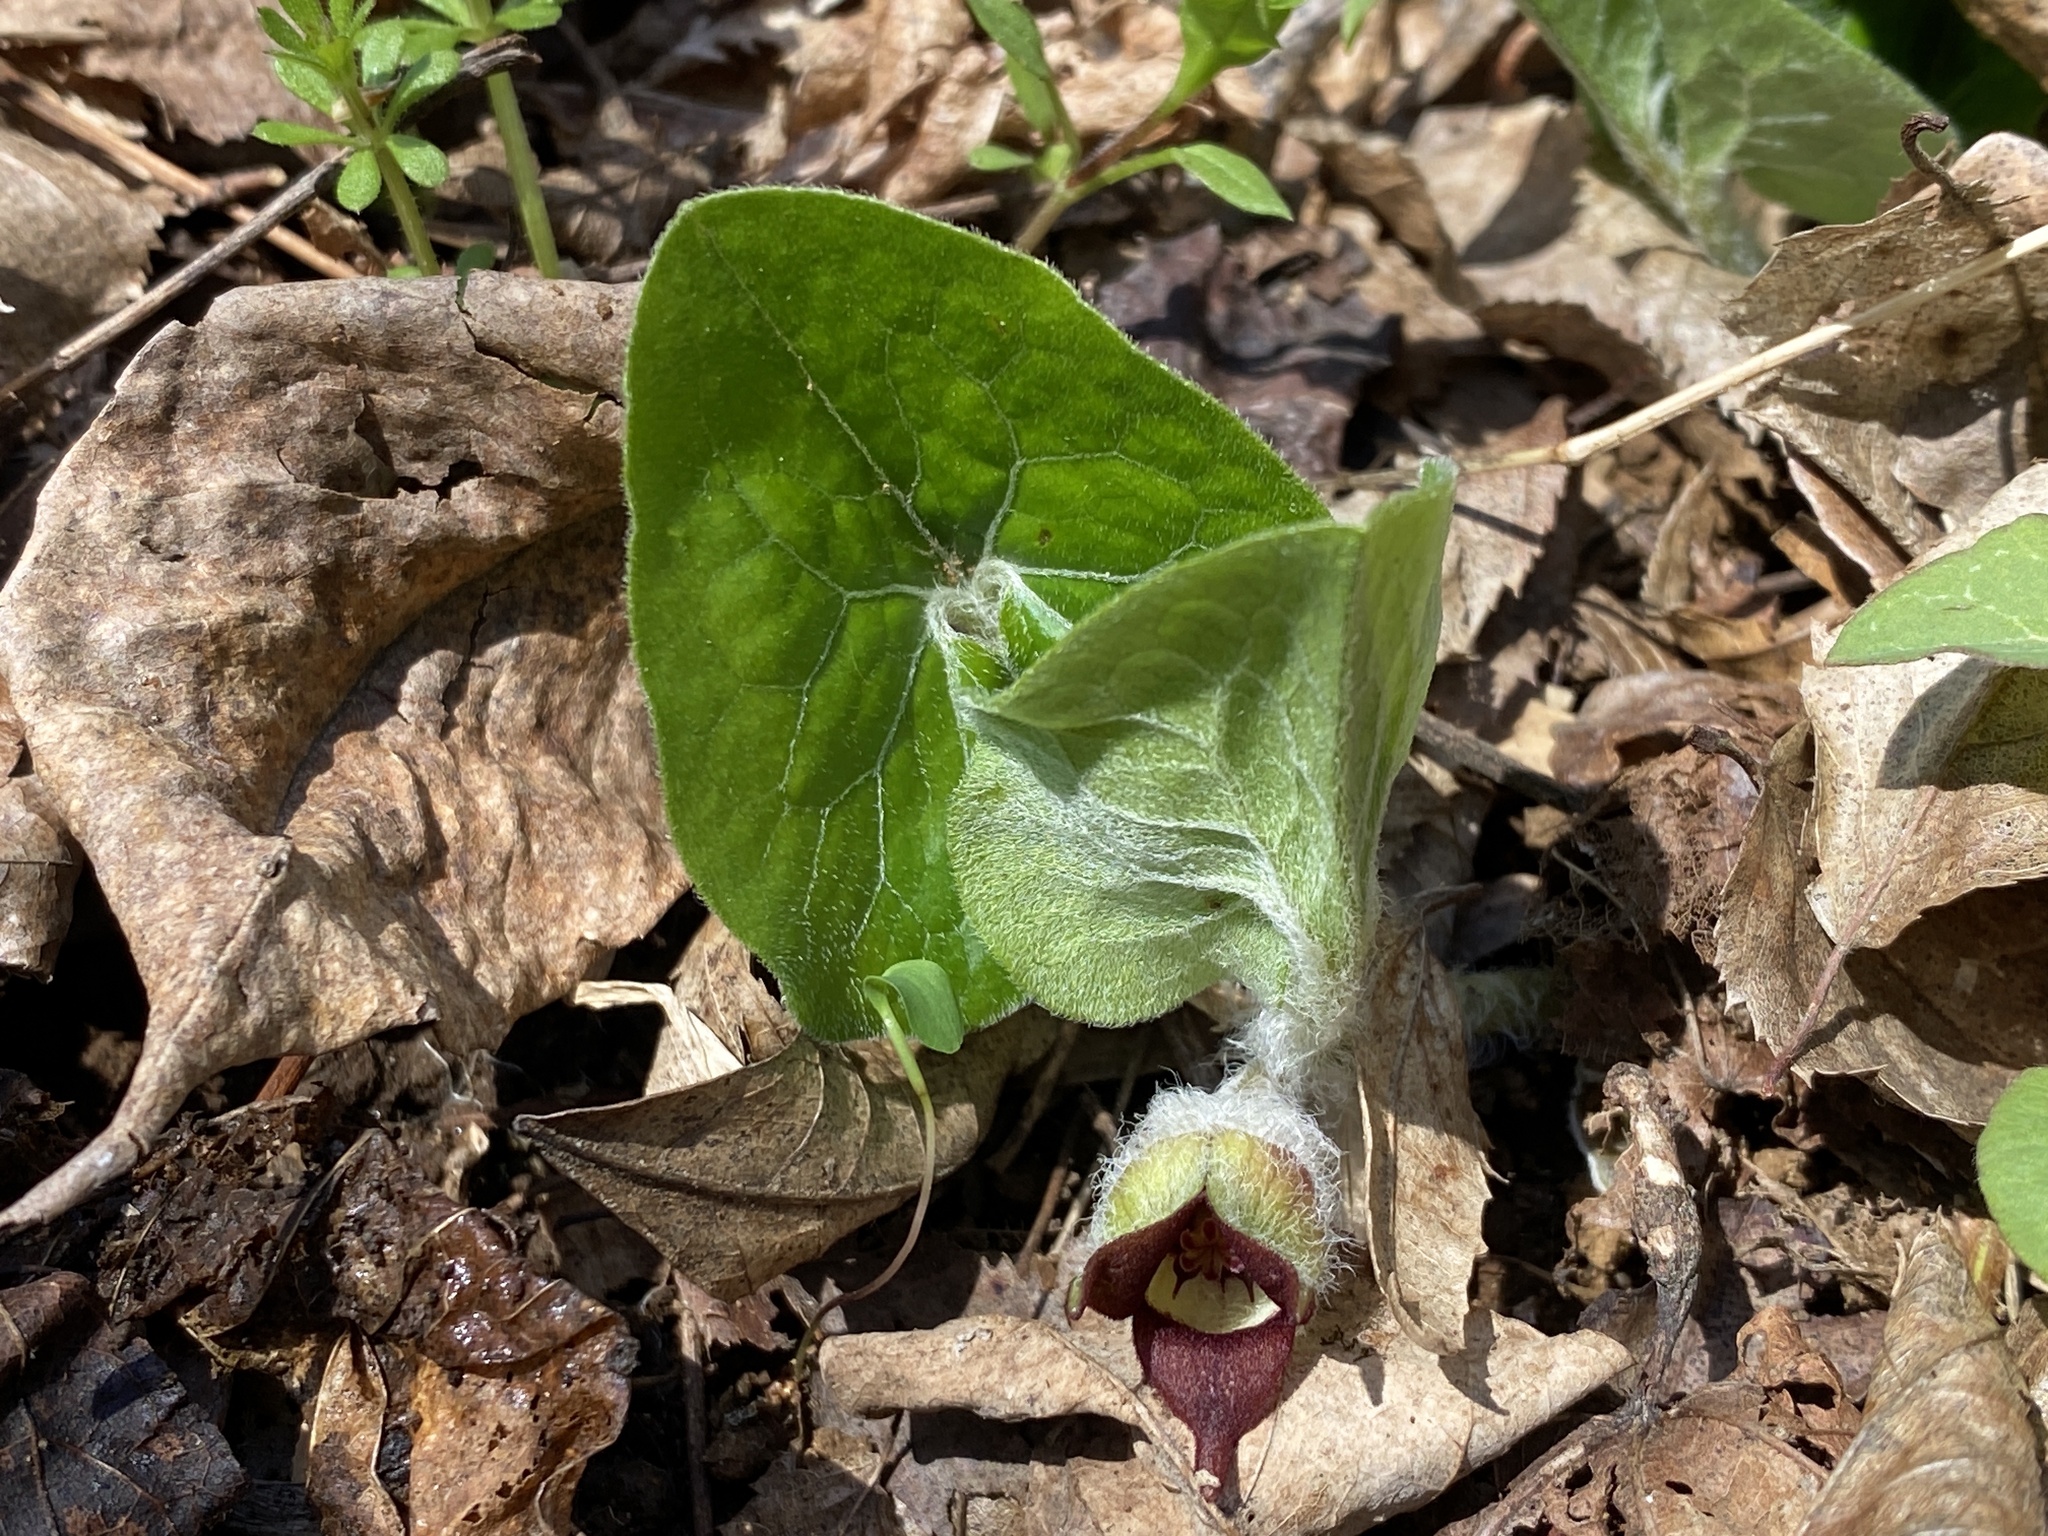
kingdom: Plantae
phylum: Tracheophyta
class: Magnoliopsida
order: Piperales
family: Aristolochiaceae
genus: Asarum
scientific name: Asarum canadense
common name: Wild ginger
